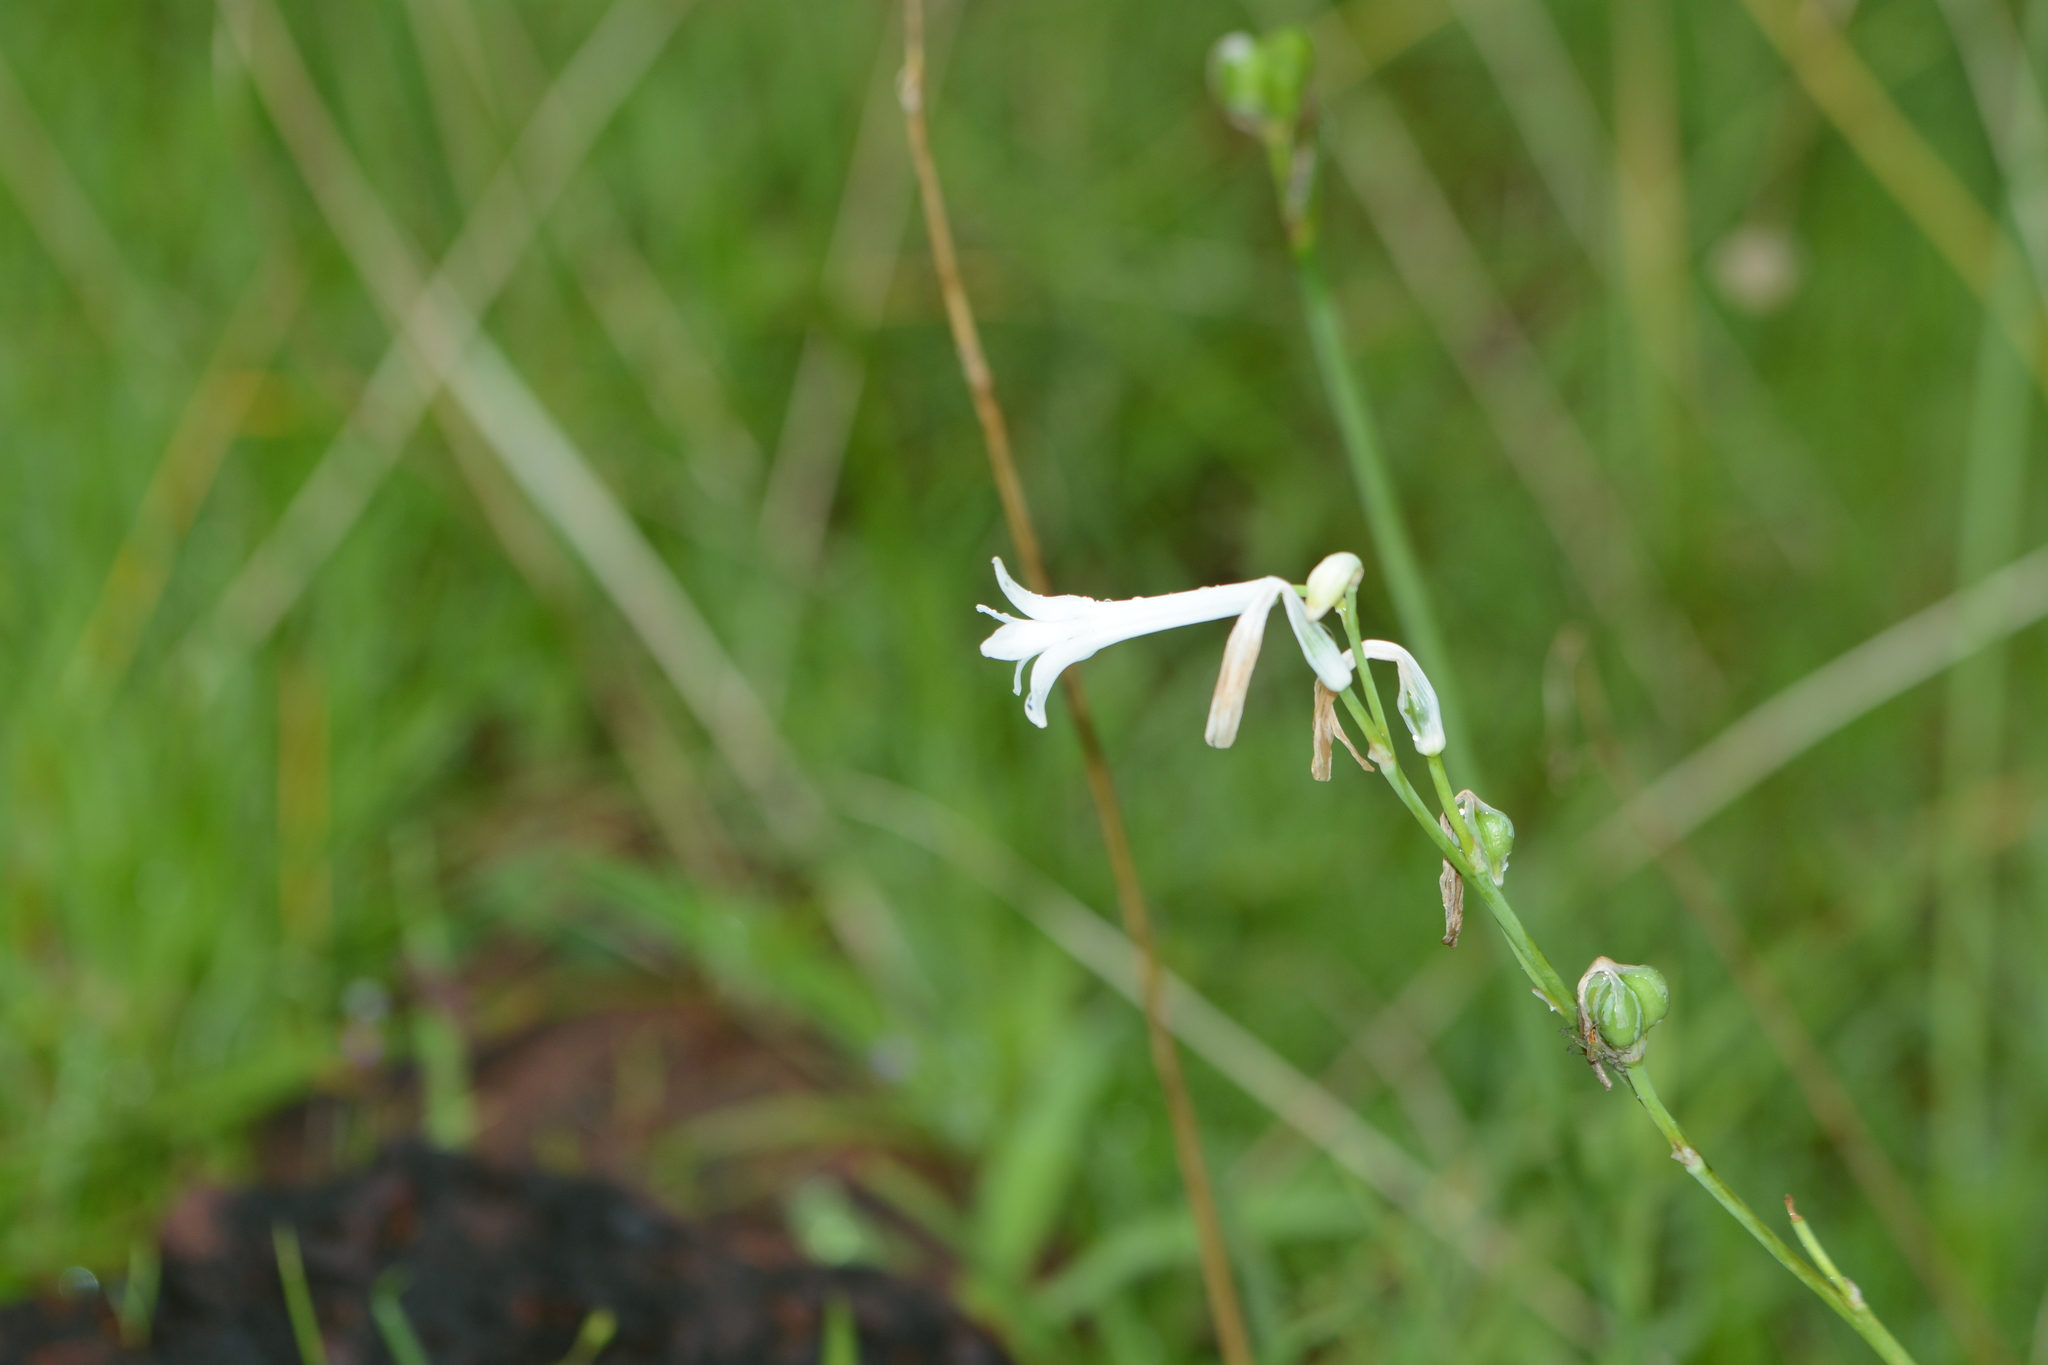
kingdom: Plantae
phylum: Tracheophyta
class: Liliopsida
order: Asparagales
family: Asparagaceae
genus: Dipcadi
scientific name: Dipcadi concanense
